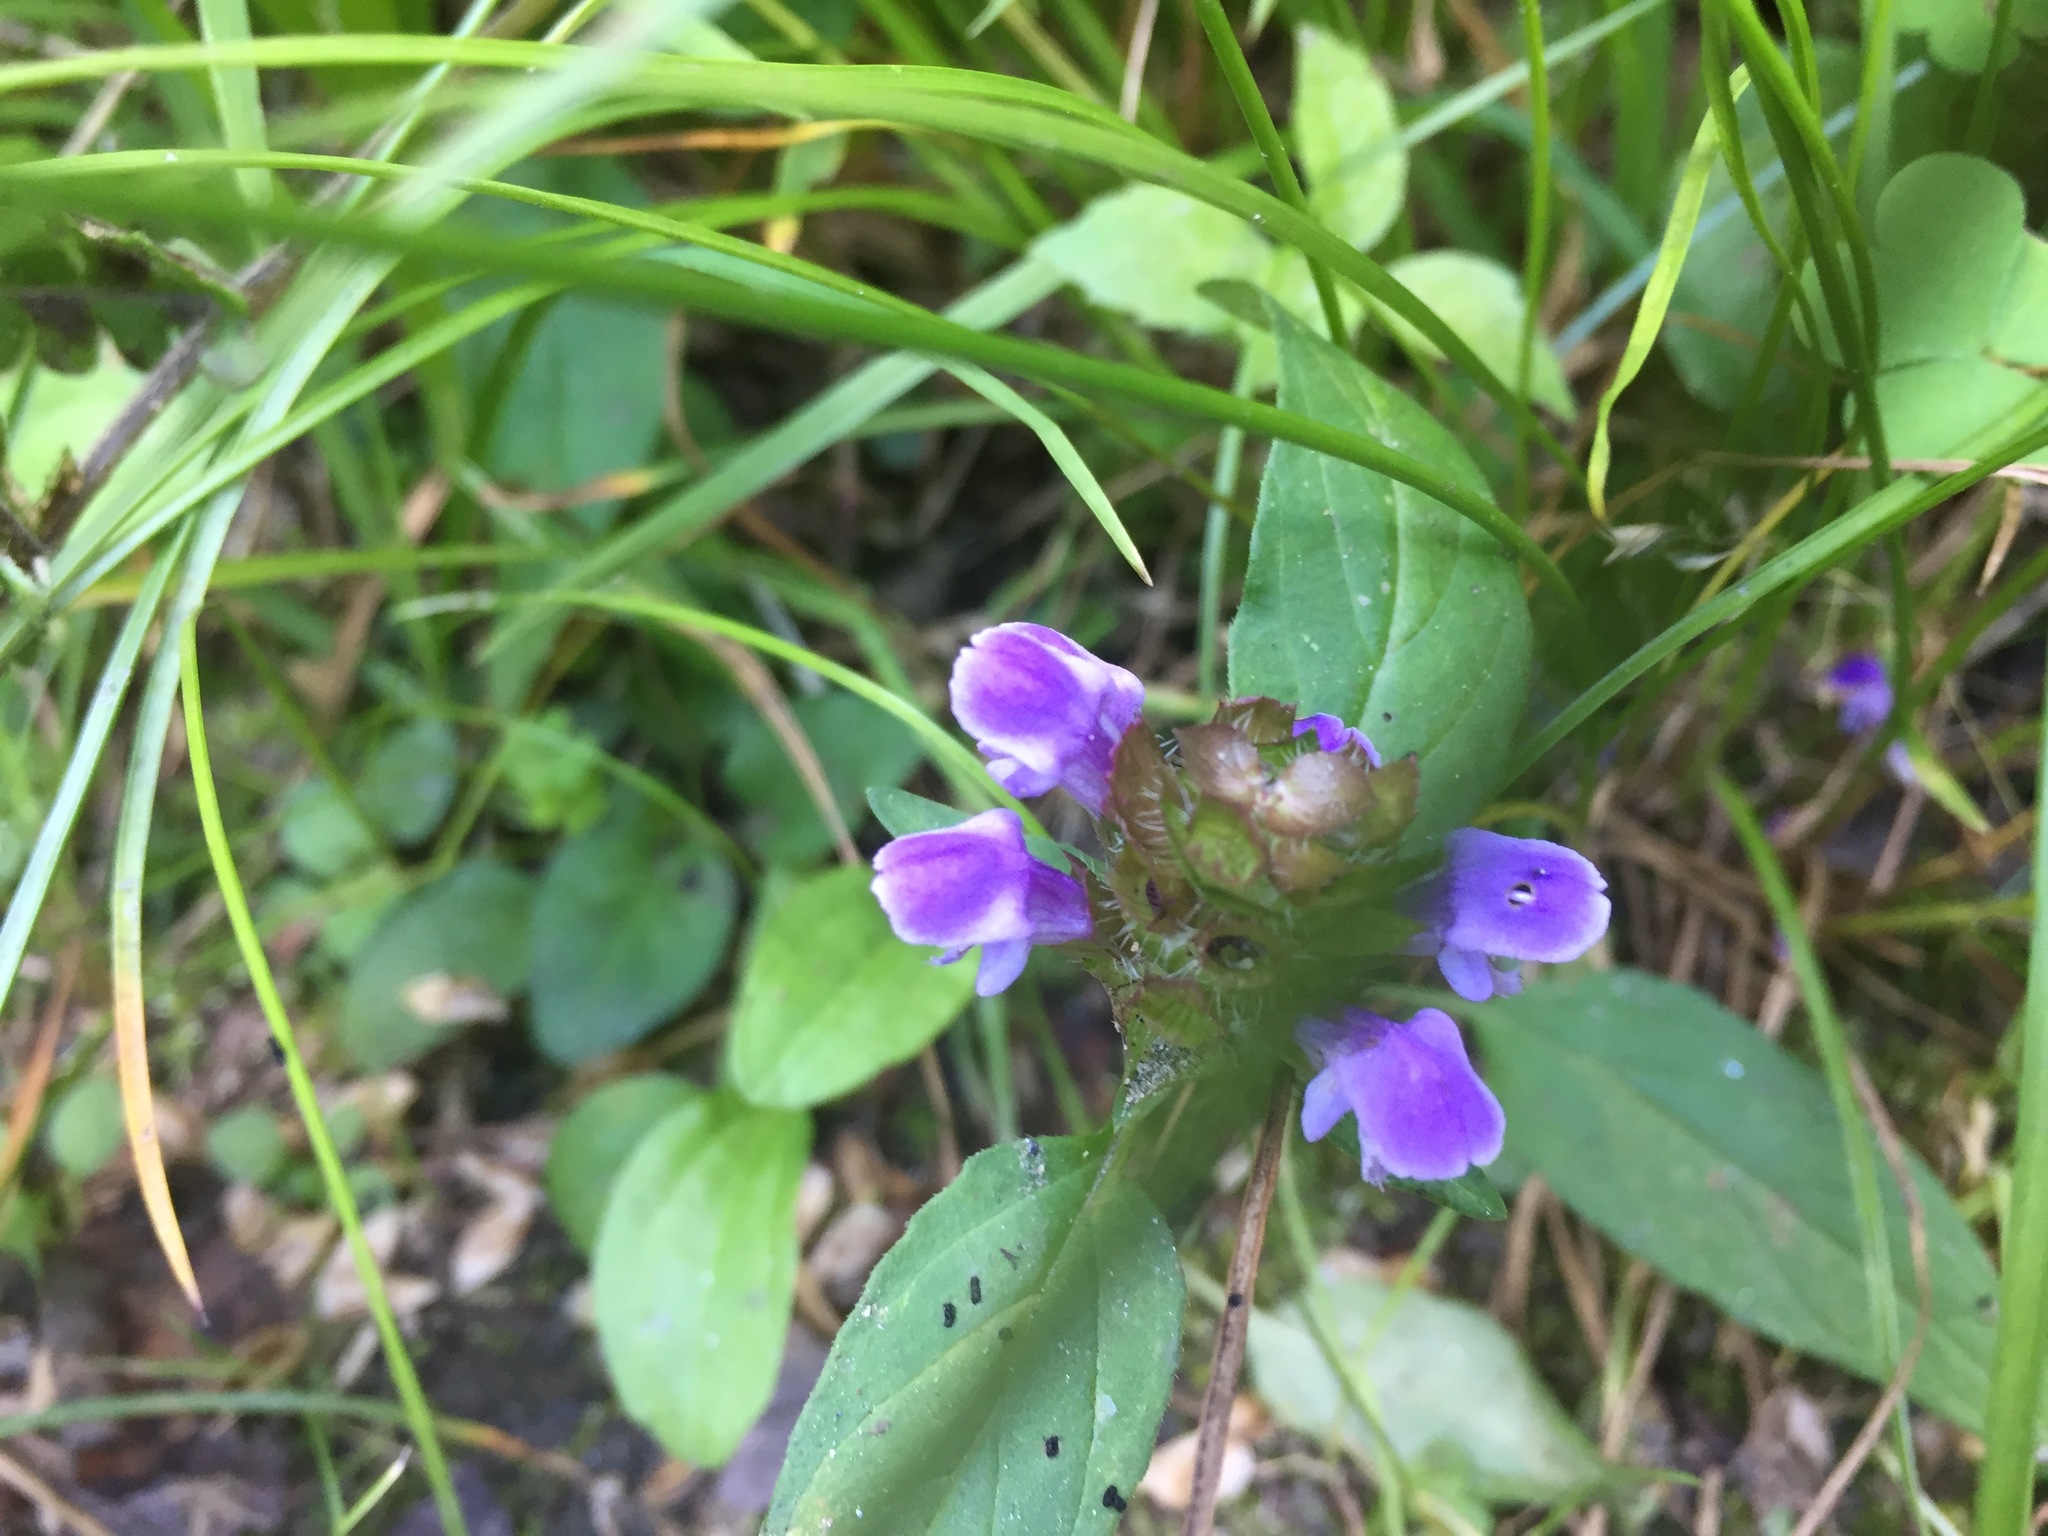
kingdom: Plantae
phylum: Tracheophyta
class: Magnoliopsida
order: Lamiales
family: Lamiaceae
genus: Prunella
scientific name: Prunella vulgaris
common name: Heal-all
